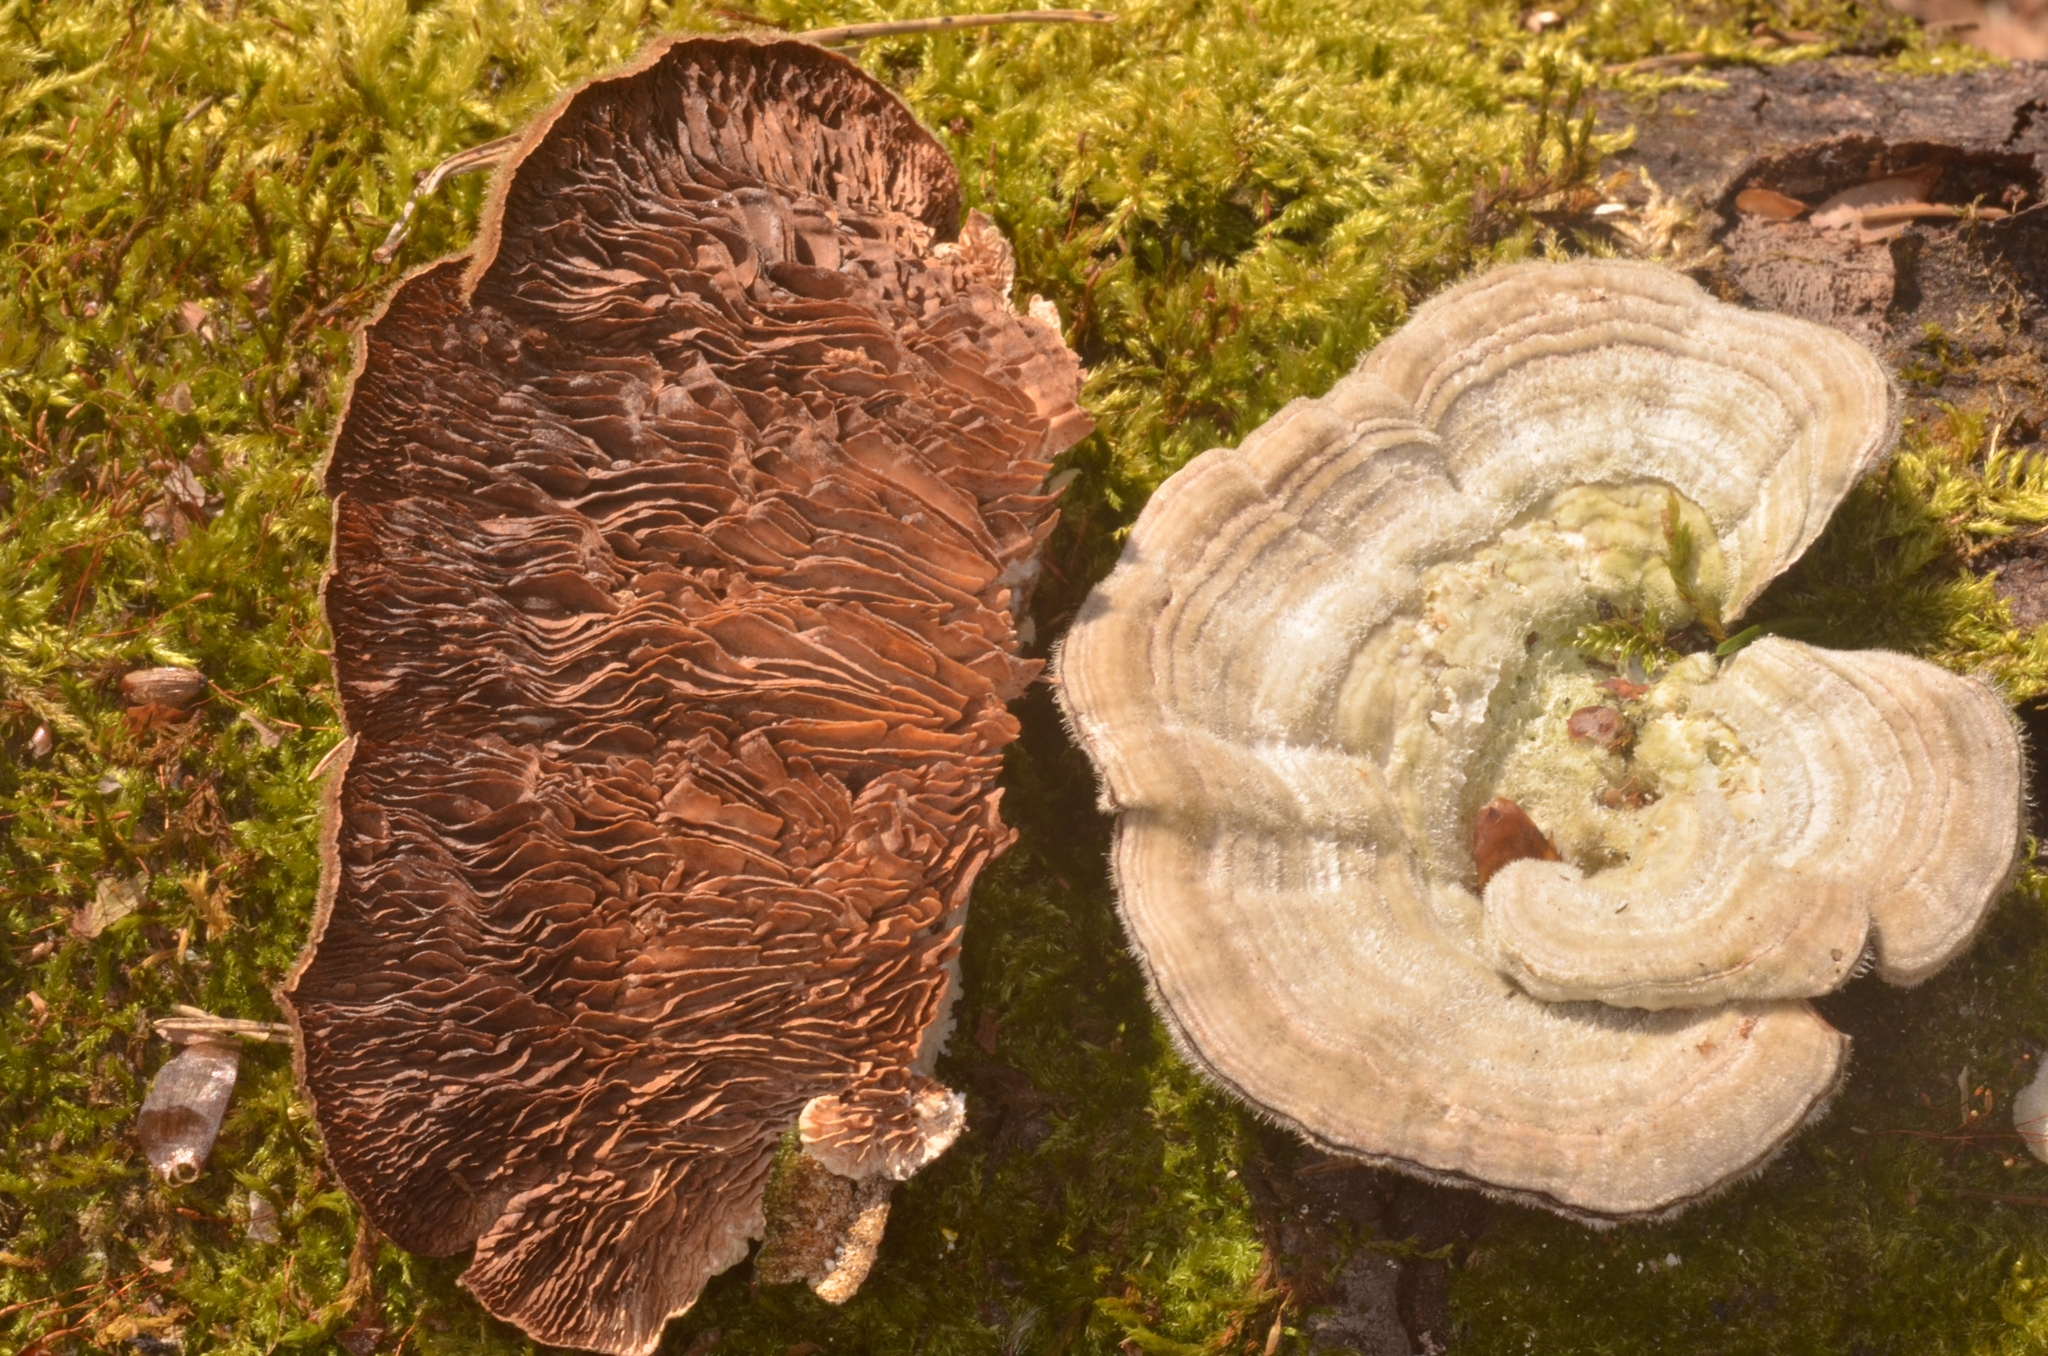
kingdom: Fungi
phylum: Basidiomycota
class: Agaricomycetes
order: Polyporales
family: Polyporaceae
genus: Lenzites
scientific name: Lenzites betulinus
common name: Birch mazegill
